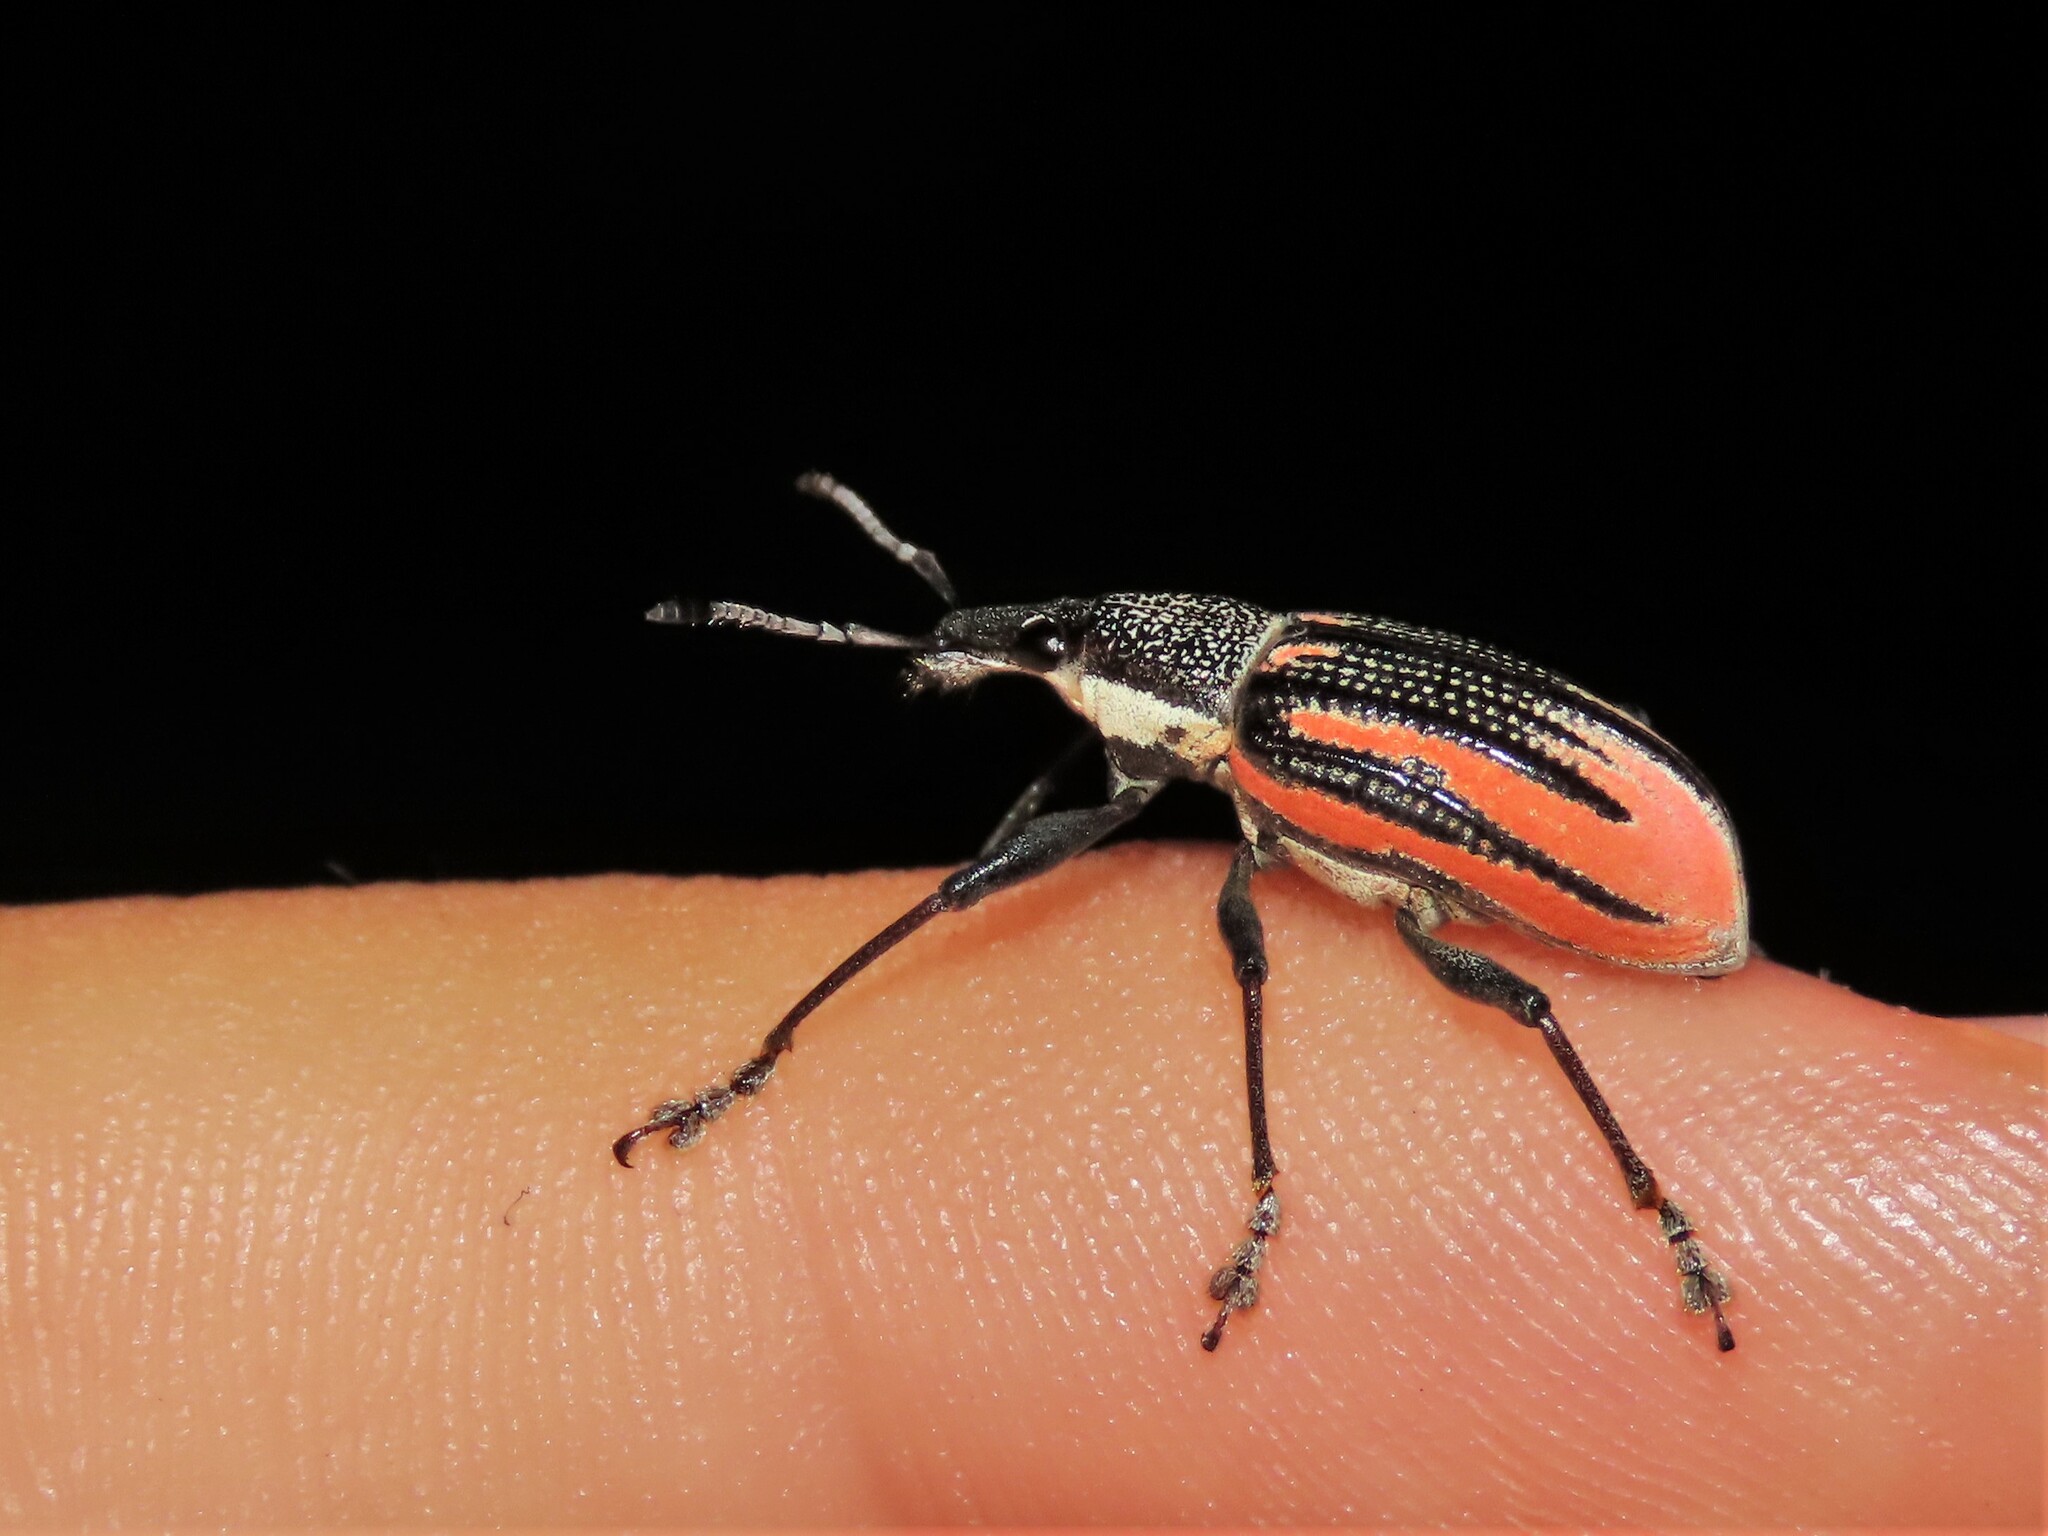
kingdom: Animalia
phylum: Arthropoda
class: Insecta
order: Coleoptera
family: Curculionidae
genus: Diaprepes
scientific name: Diaprepes abbreviatus
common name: Root weevil
